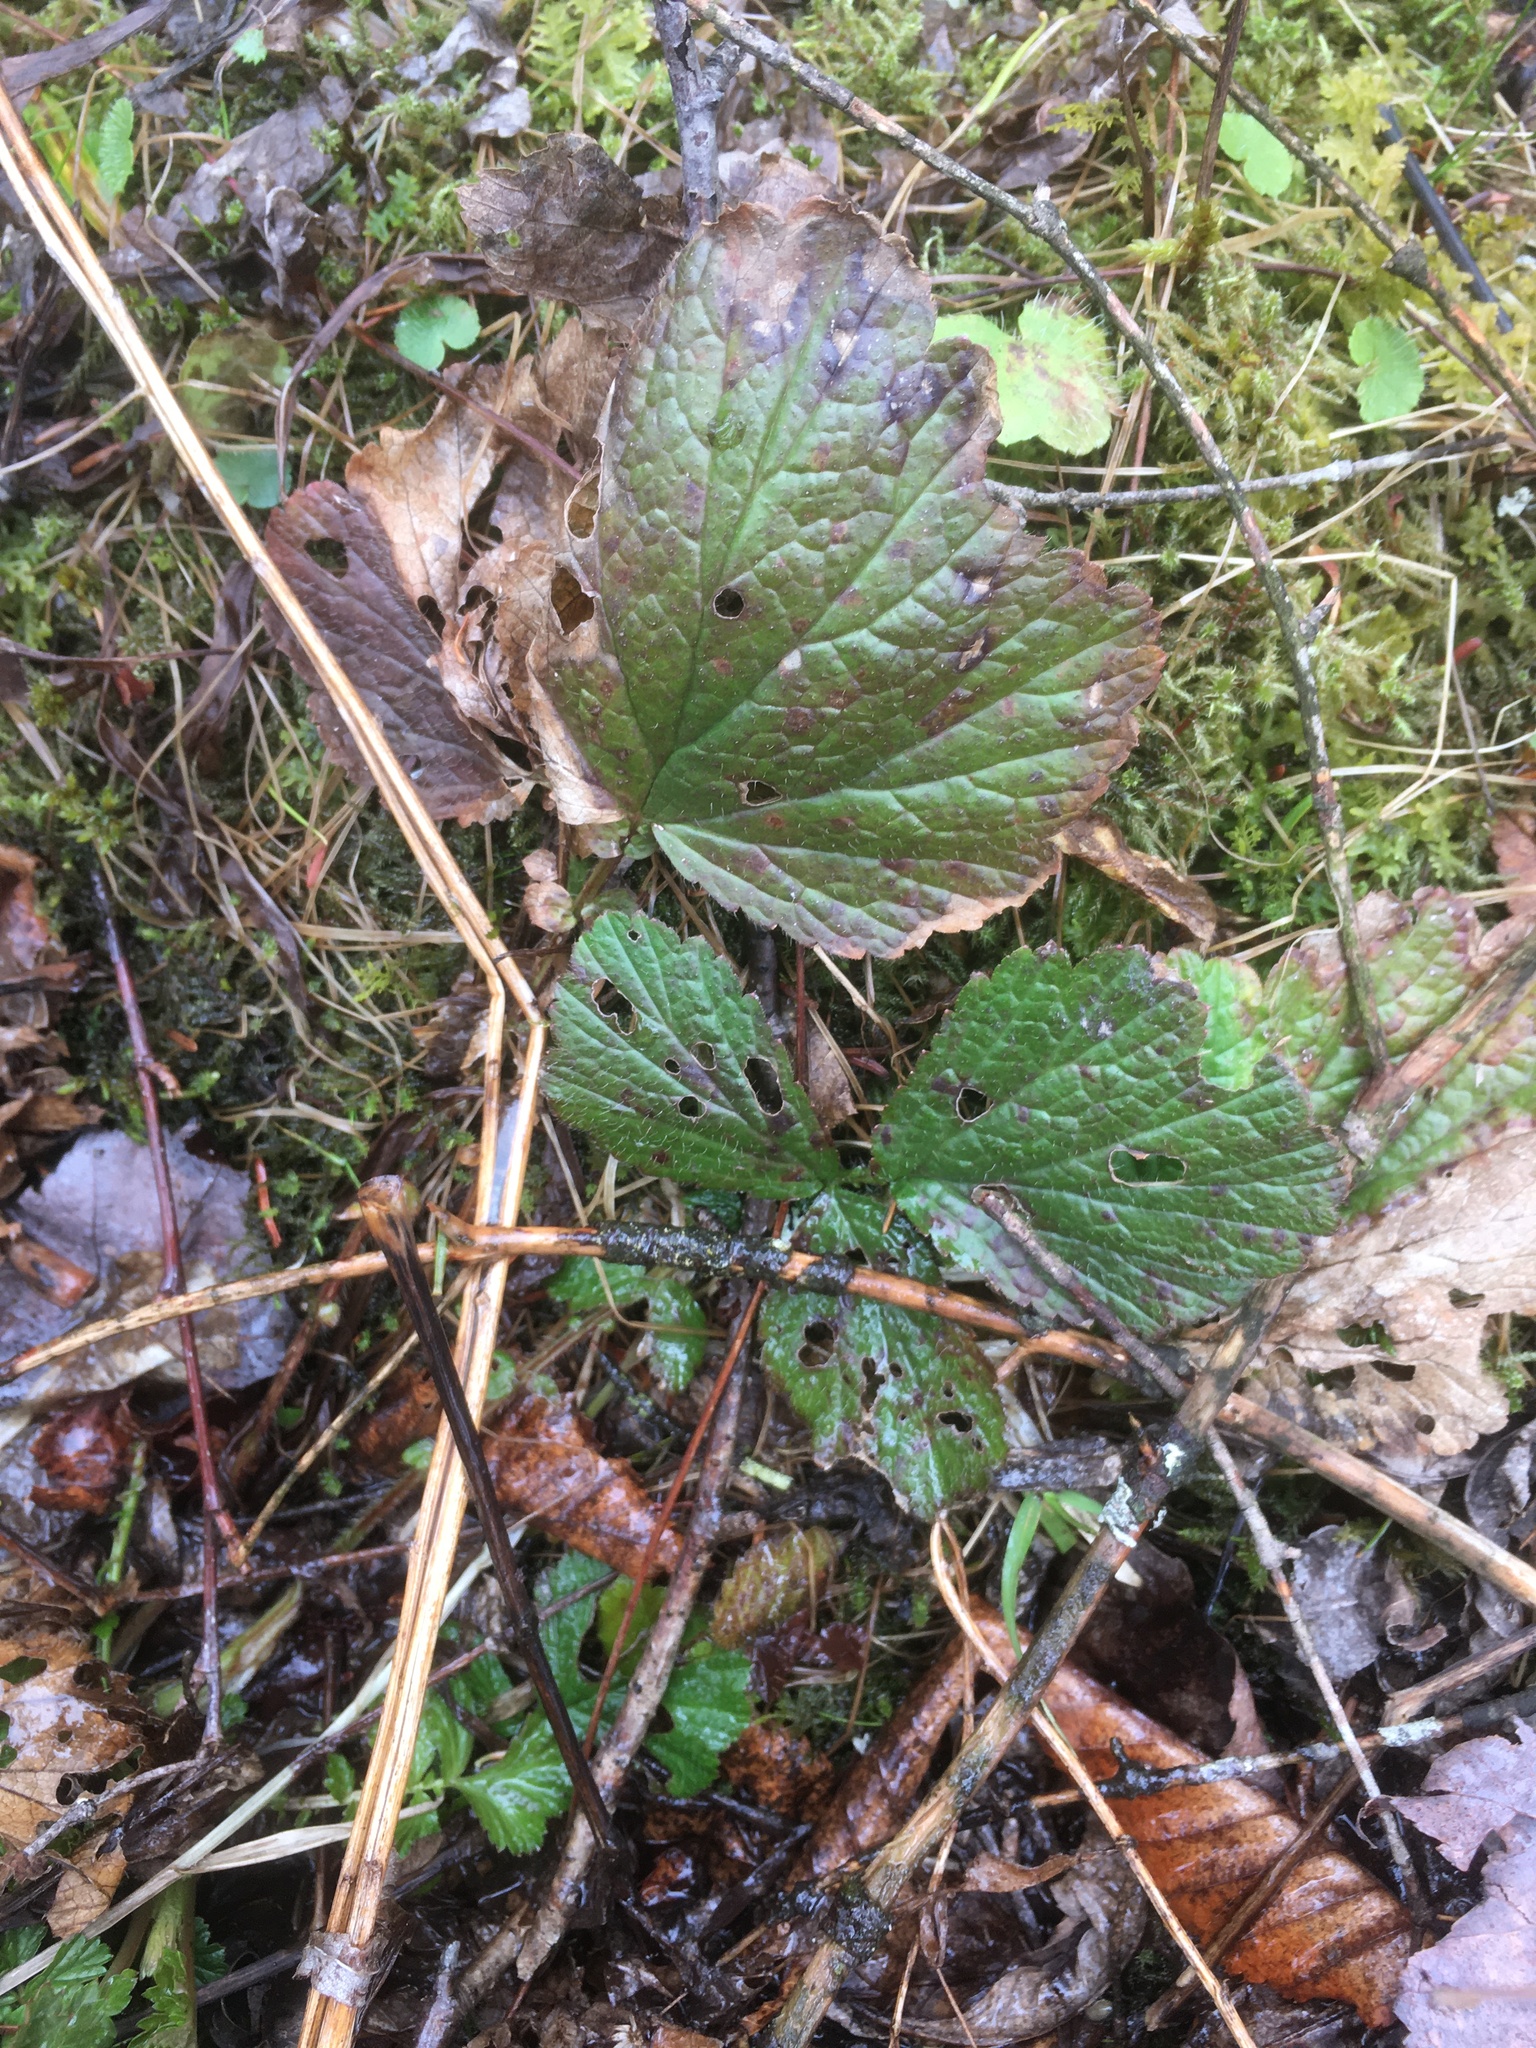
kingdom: Plantae
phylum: Tracheophyta
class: Magnoliopsida
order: Rosales
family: Rosaceae
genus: Geum
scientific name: Geum rivale
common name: Water avens
